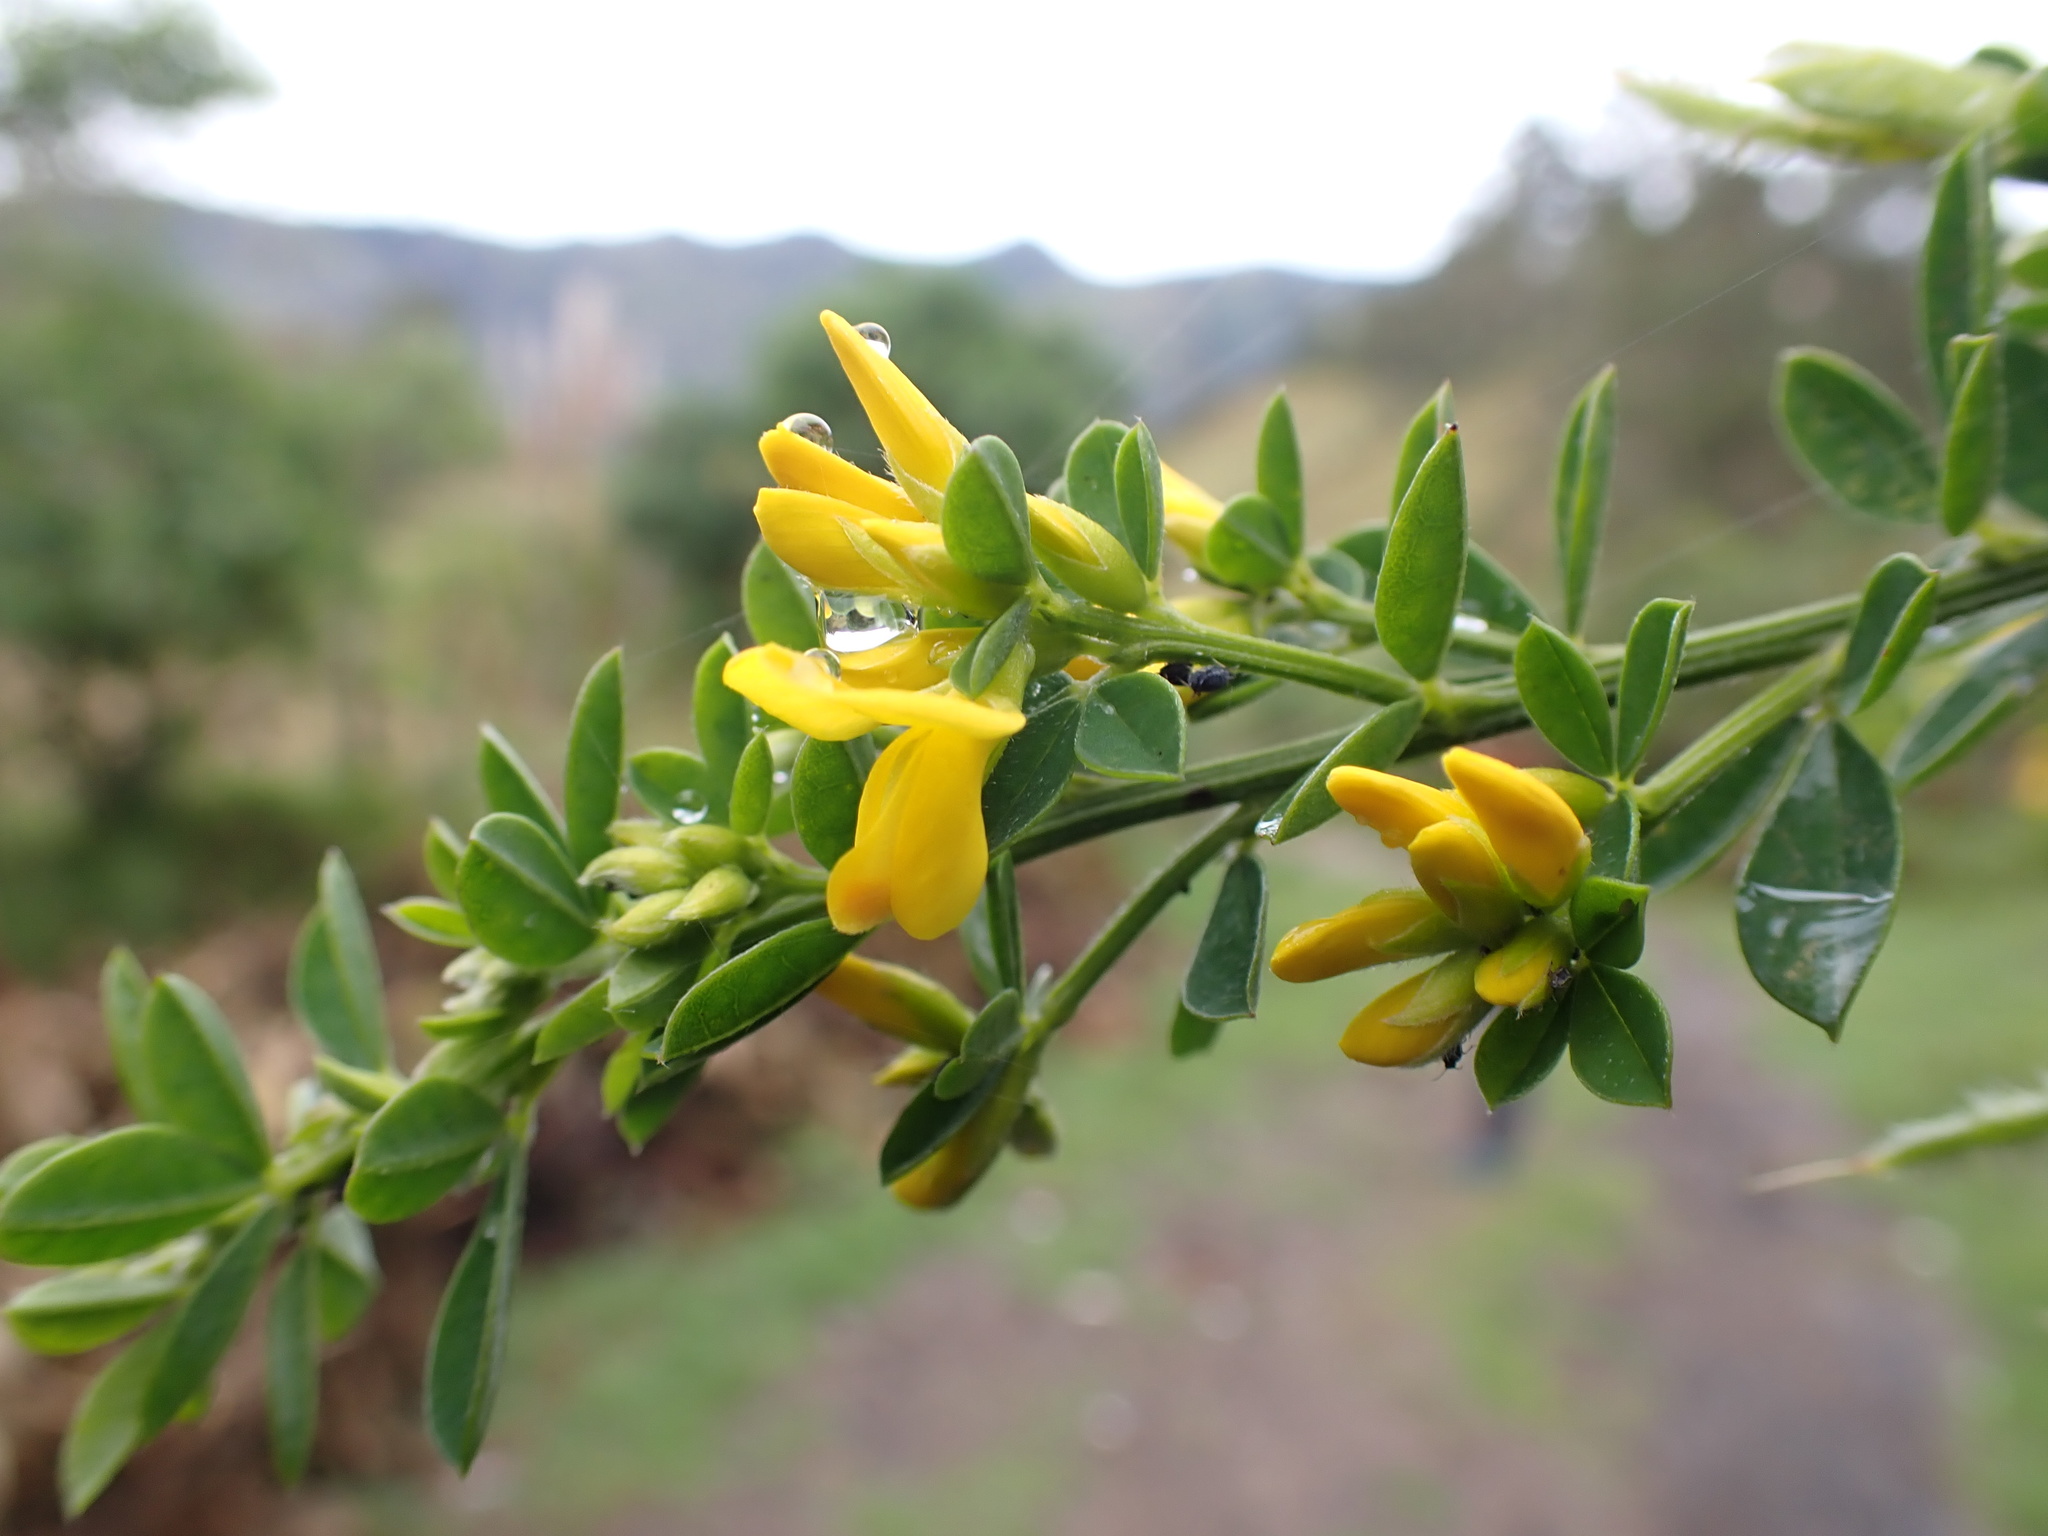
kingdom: Plantae
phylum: Tracheophyta
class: Magnoliopsida
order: Fabales
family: Fabaceae
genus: Genista
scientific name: Genista monspessulana
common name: Montpellier broom
